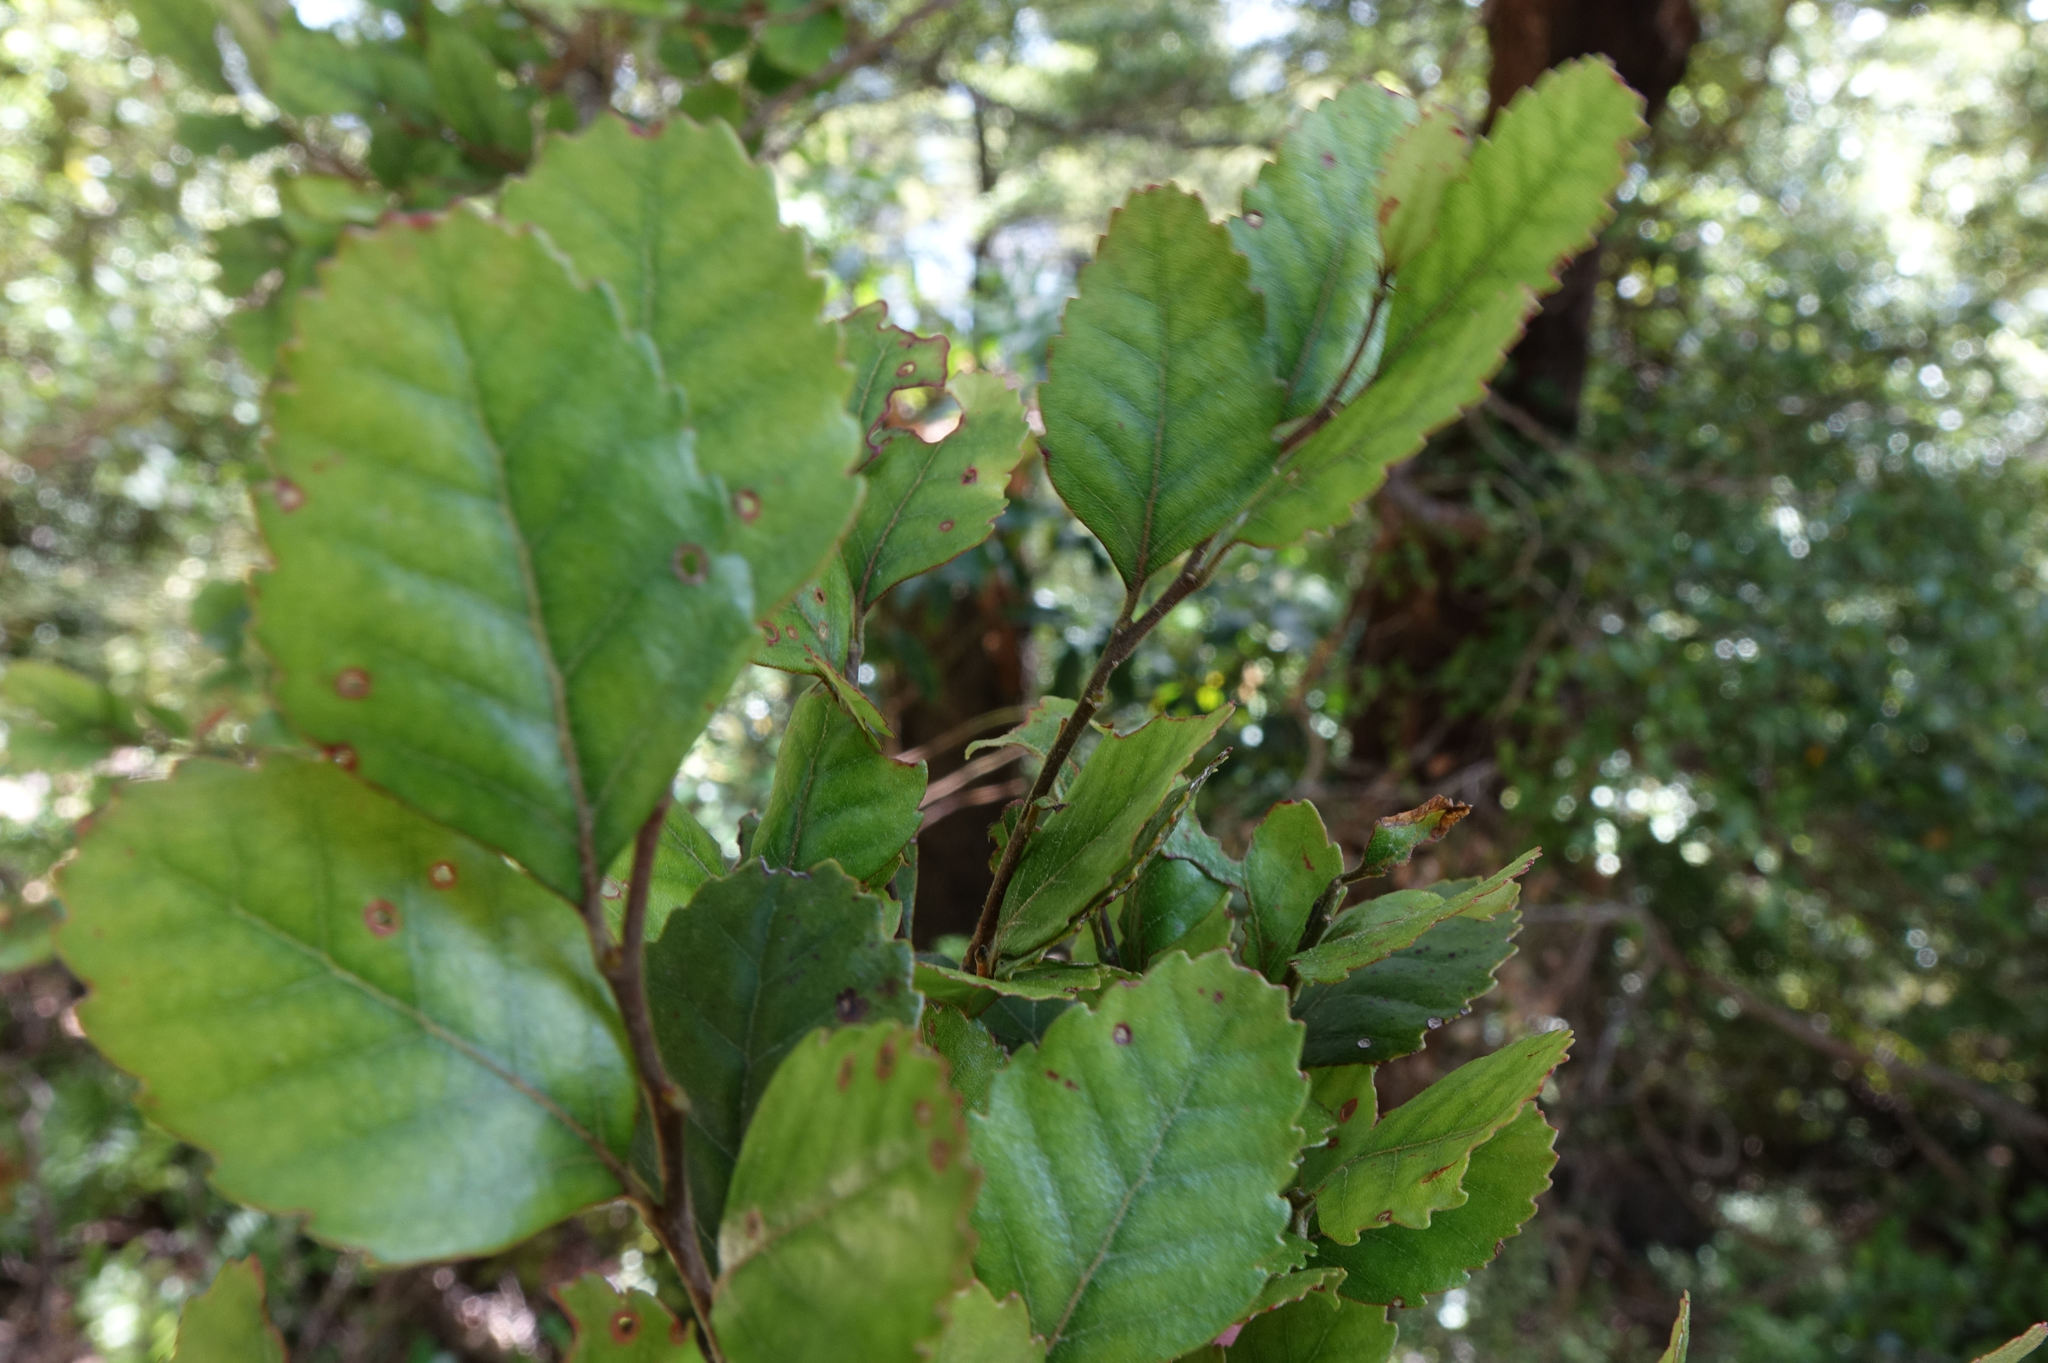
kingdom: Plantae
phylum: Tracheophyta
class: Magnoliopsida
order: Fagales
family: Nothofagaceae
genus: Nothofagus
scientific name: Nothofagus truncata
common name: Hard beech
